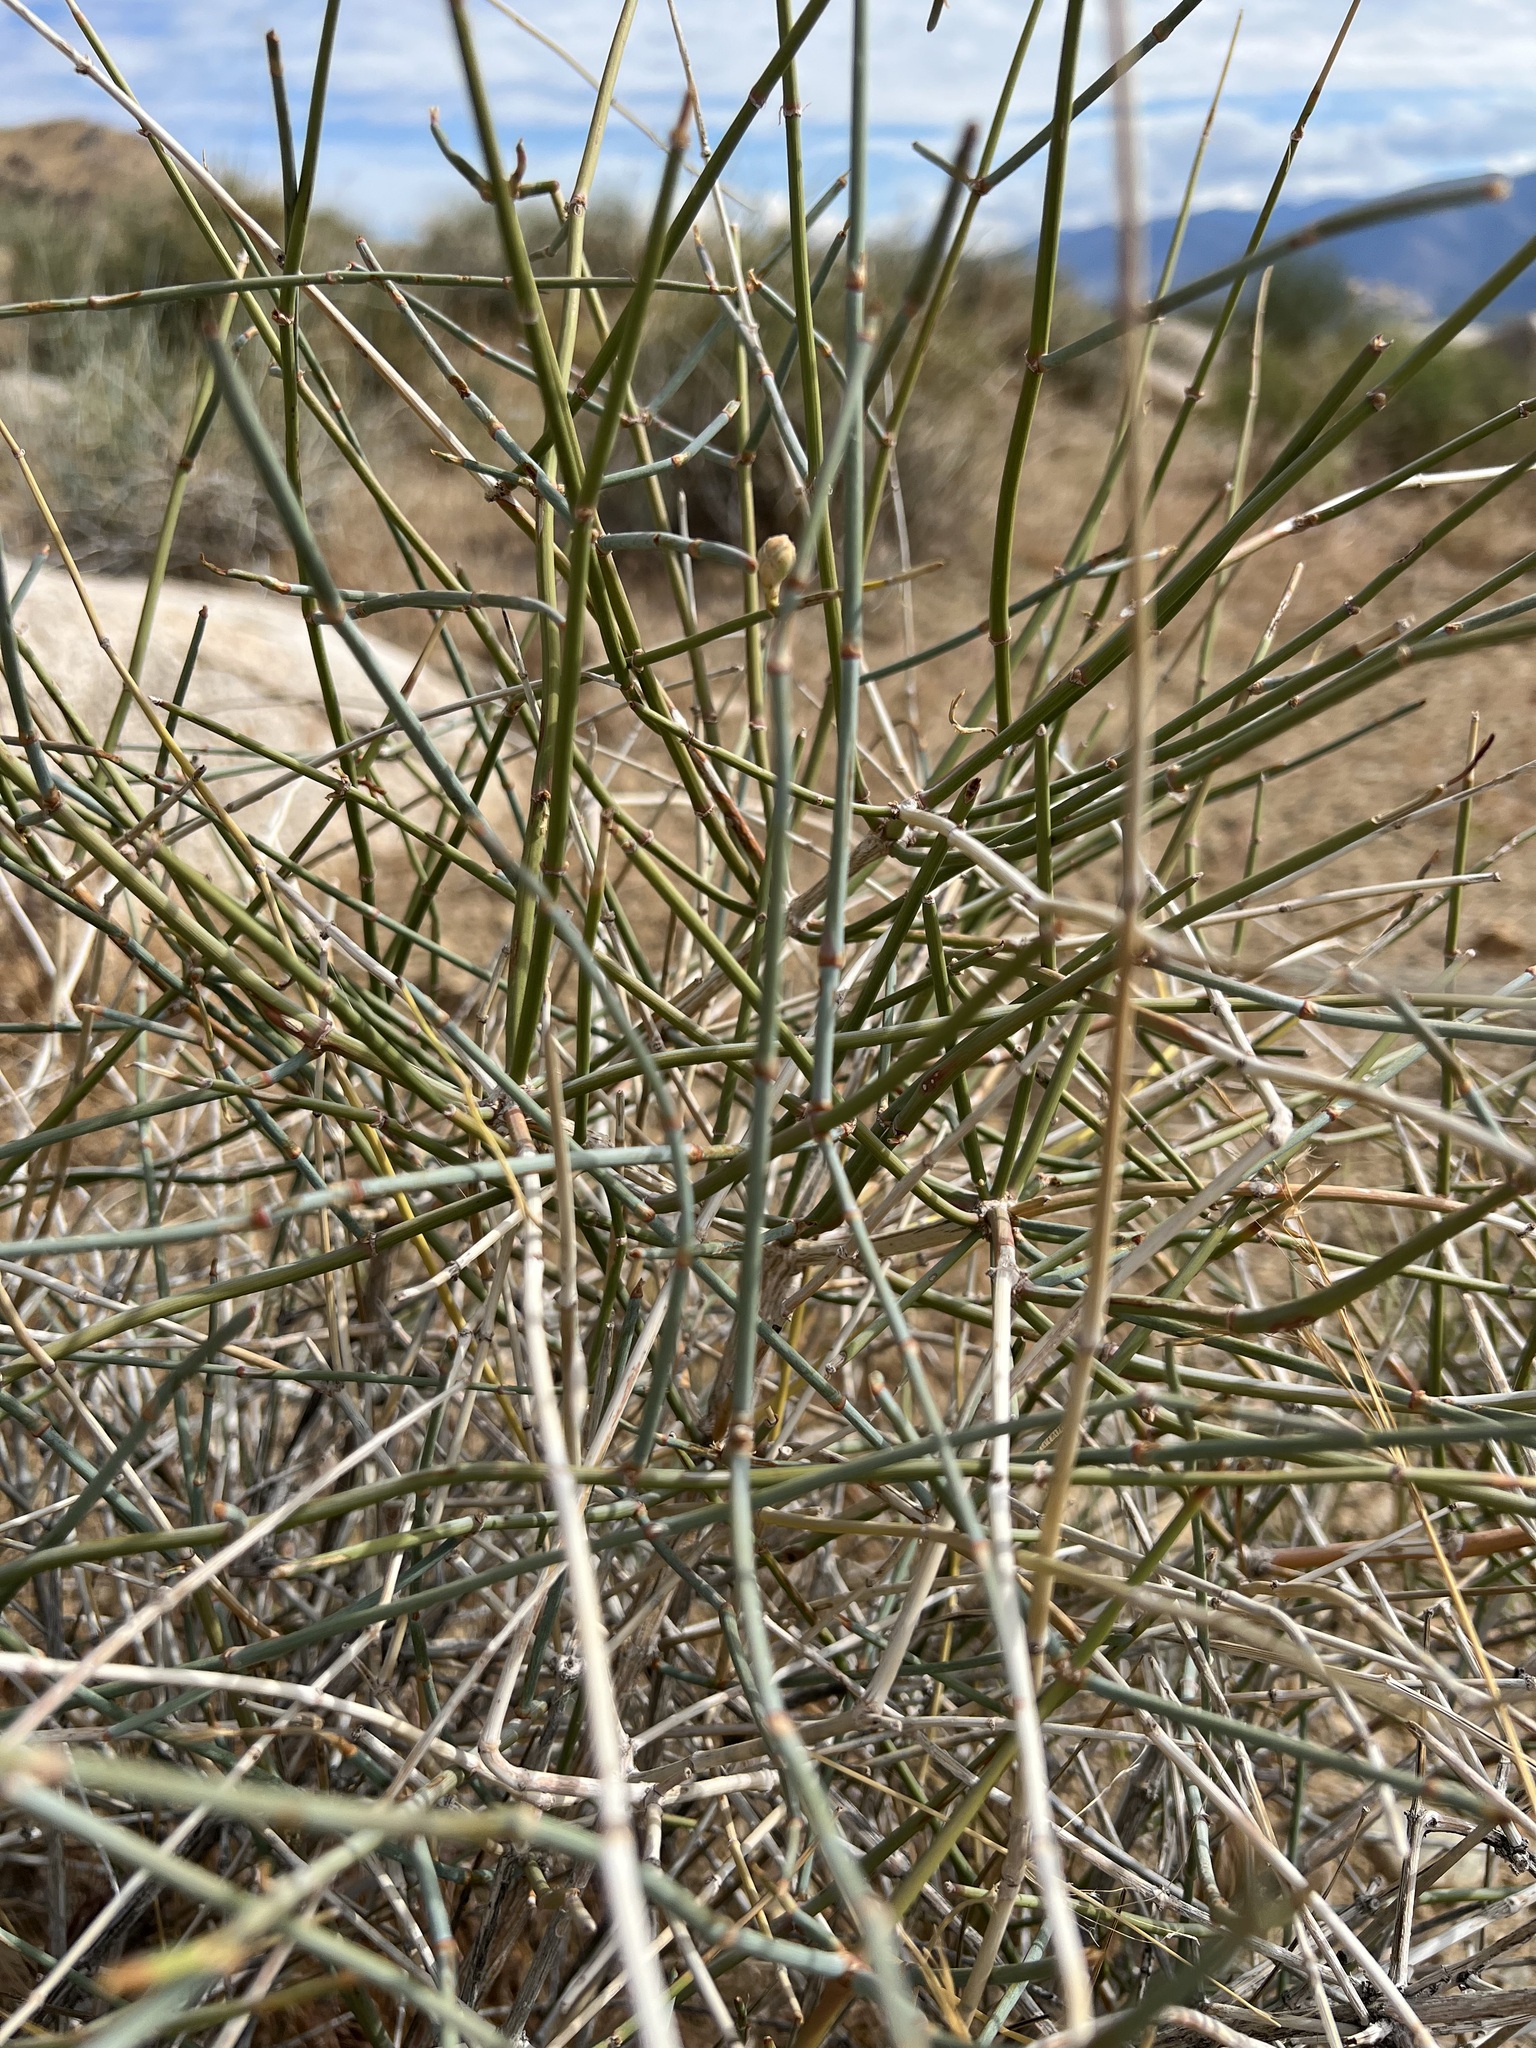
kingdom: Plantae
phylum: Tracheophyta
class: Gnetopsida
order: Ephedrales
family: Ephedraceae
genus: Ephedra
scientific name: Ephedra nevadensis
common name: Gray ephedra
